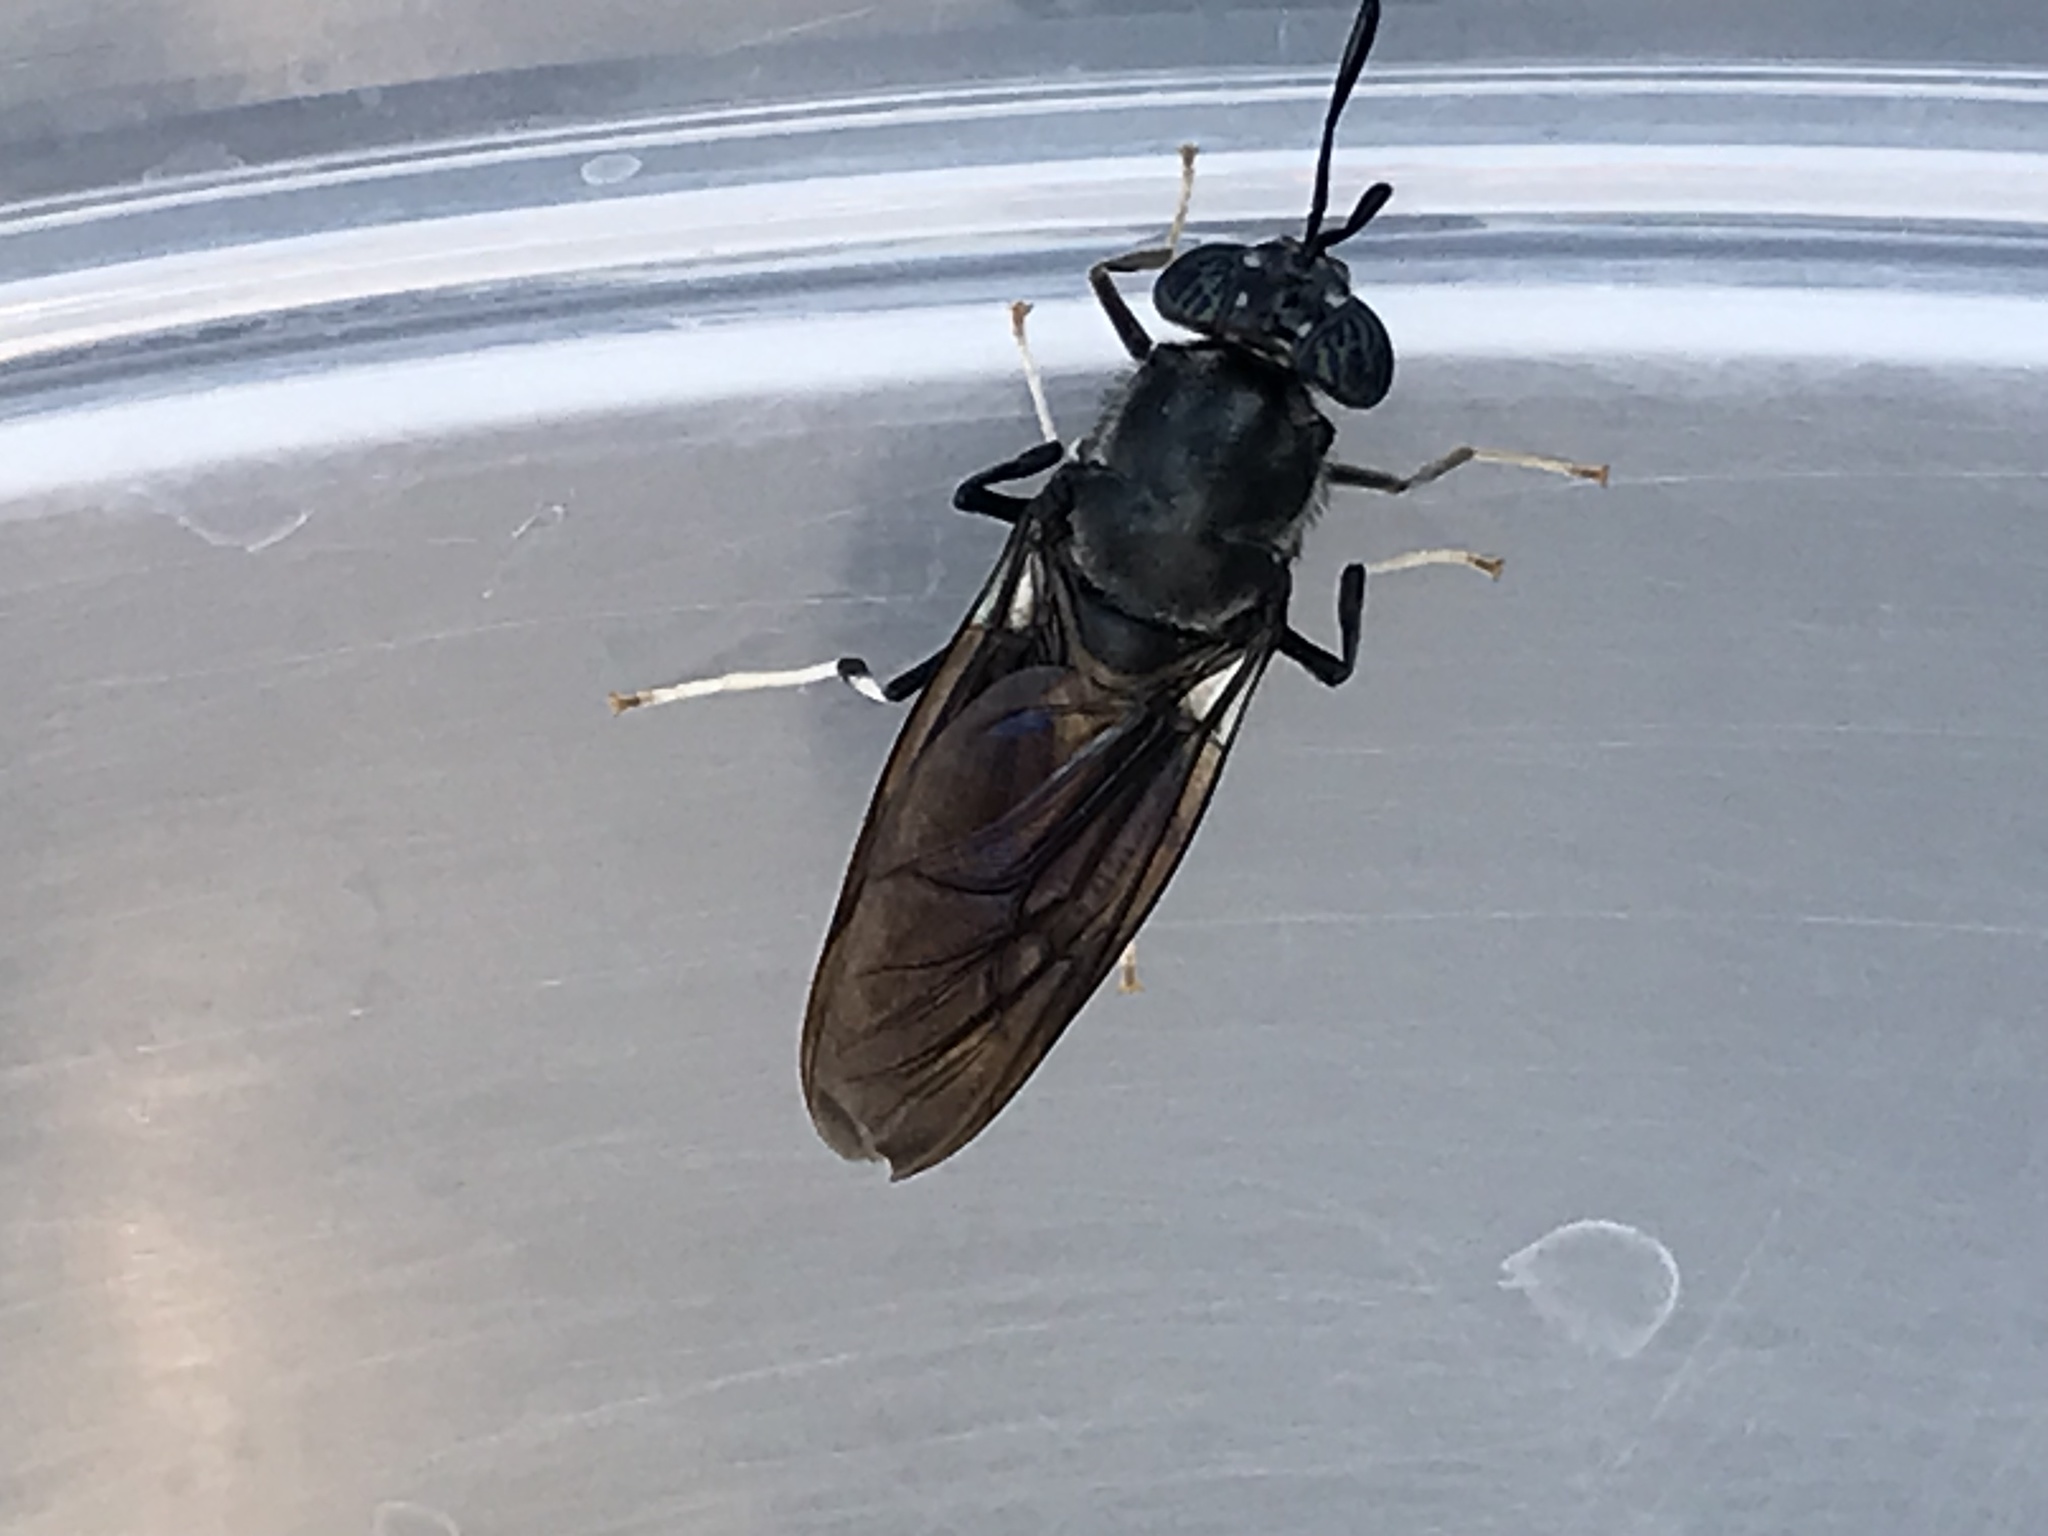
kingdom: Animalia
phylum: Arthropoda
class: Insecta
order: Diptera
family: Stratiomyidae
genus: Hermetia
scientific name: Hermetia illucens
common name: Black soldier fly
